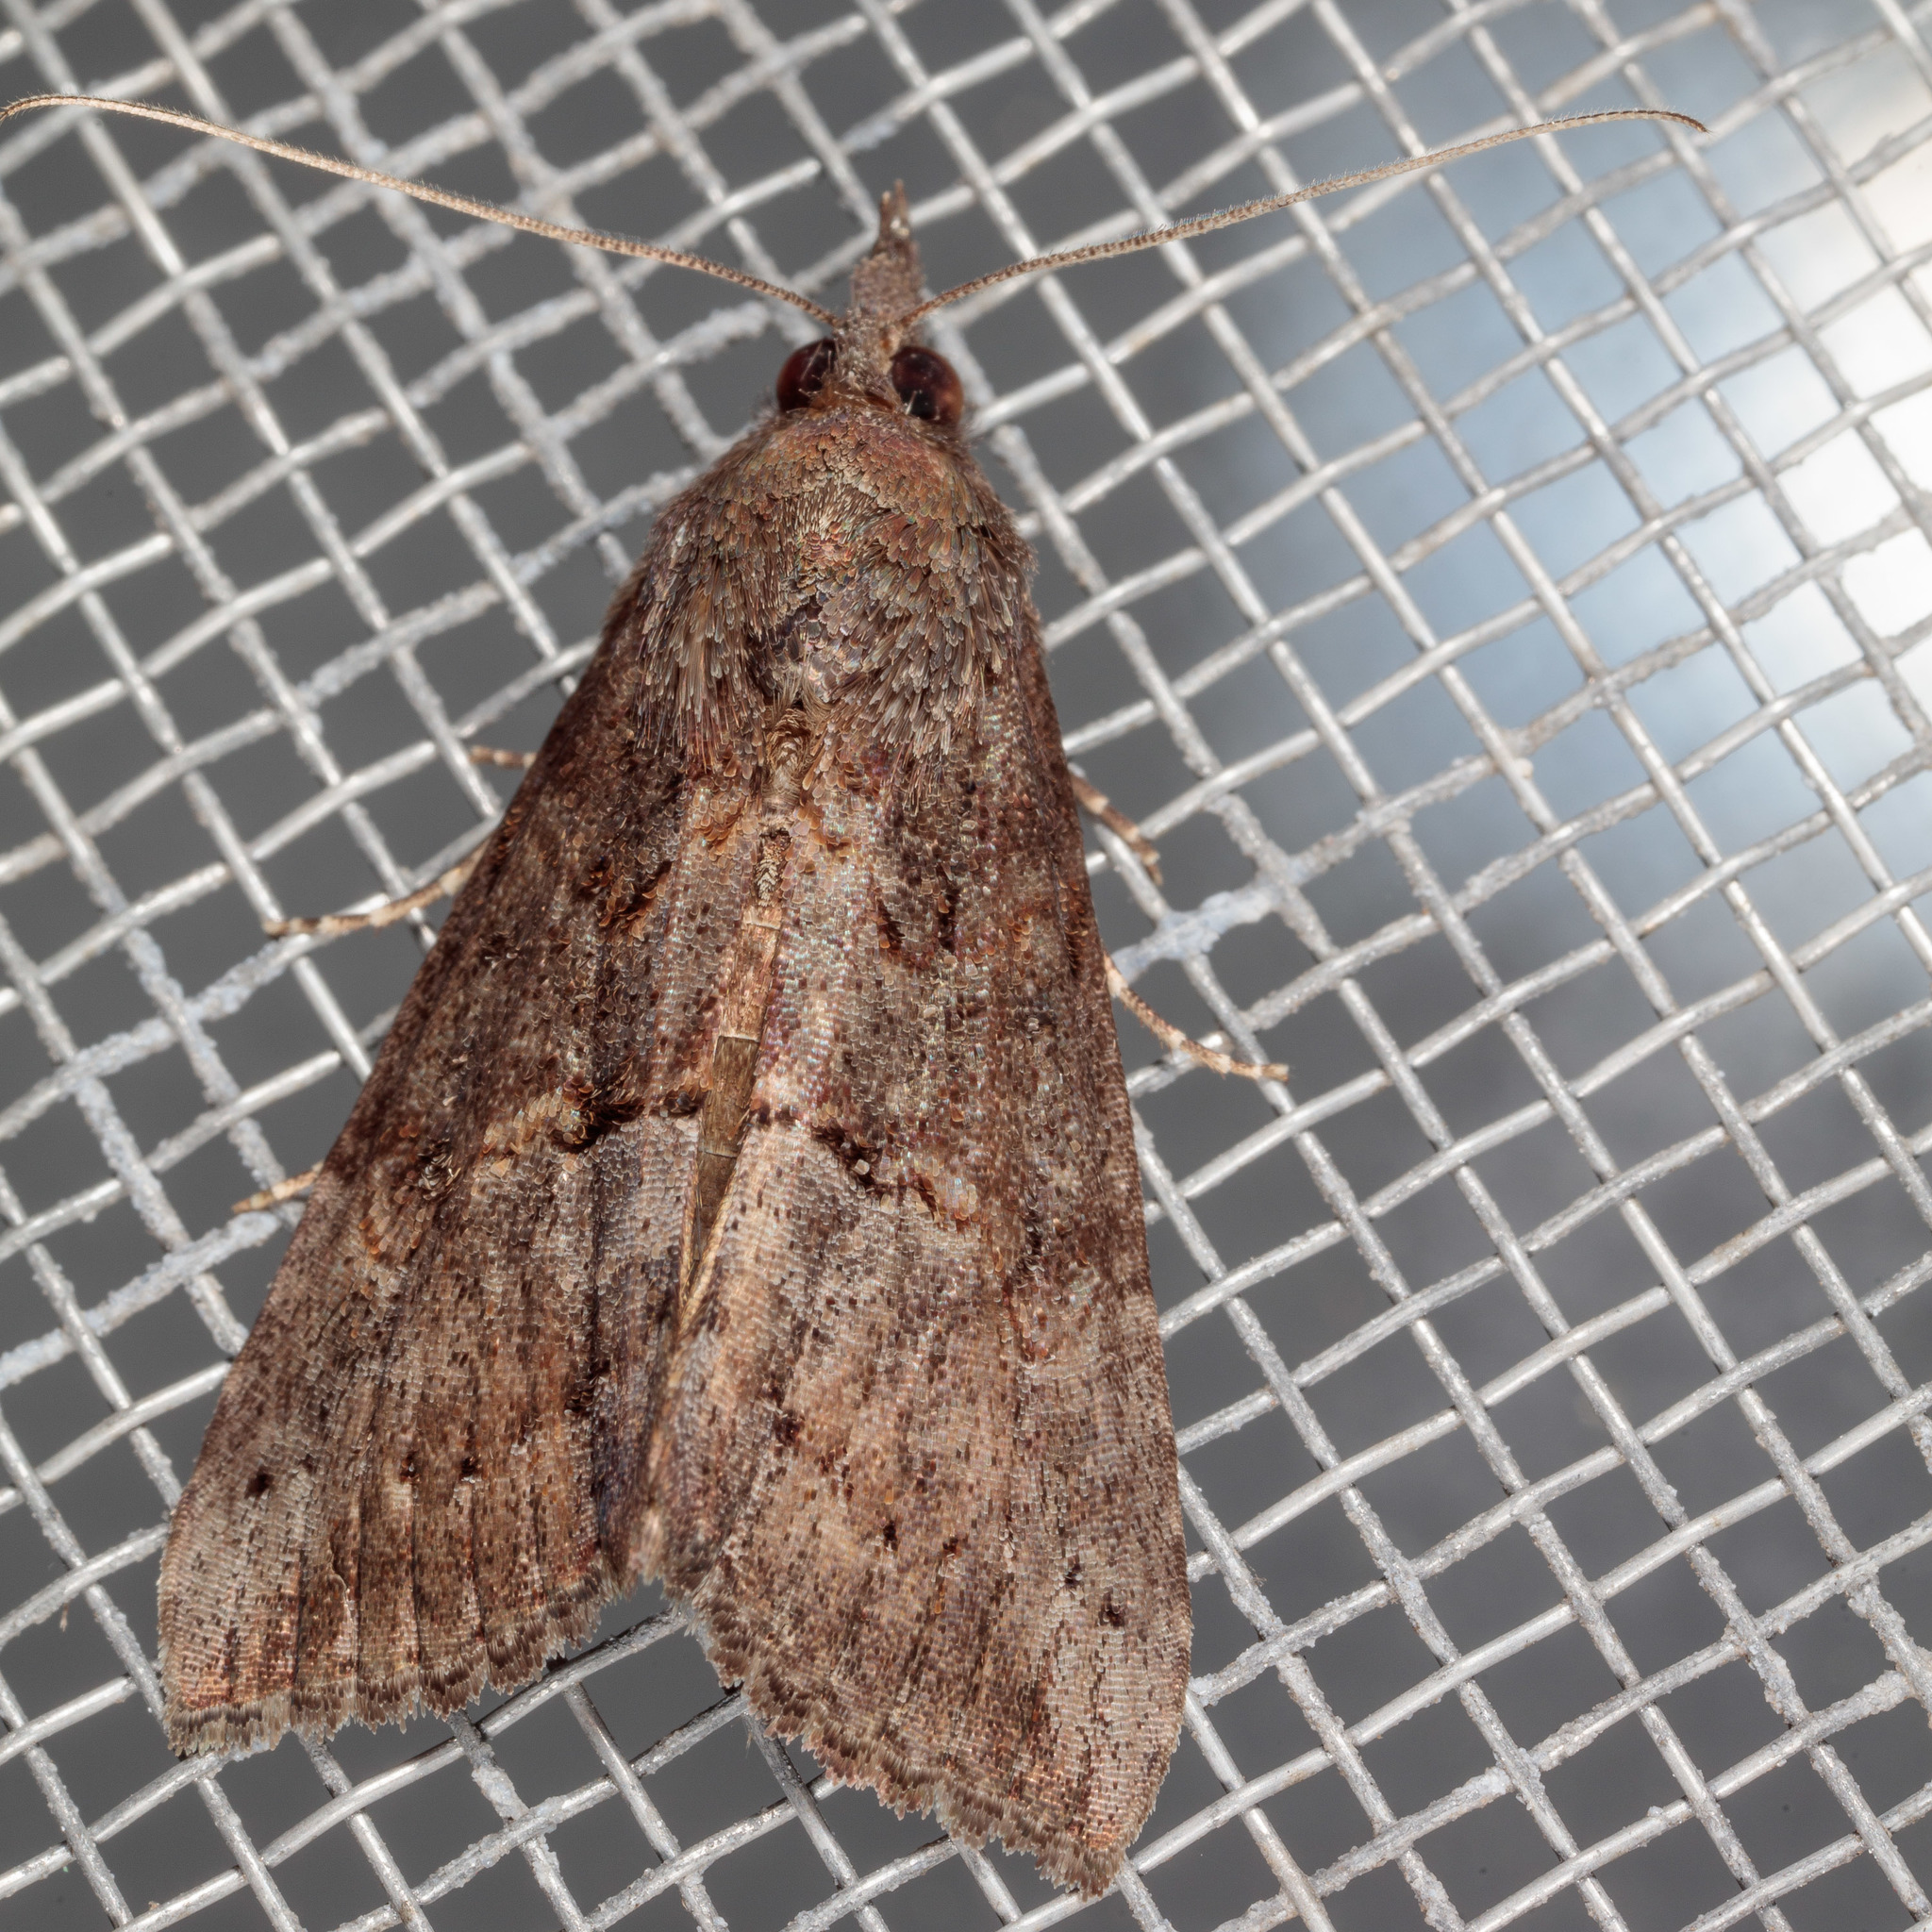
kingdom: Animalia
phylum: Arthropoda
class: Insecta
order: Lepidoptera
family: Erebidae
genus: Hypena
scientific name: Hypena scabra
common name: Green cloverworm
